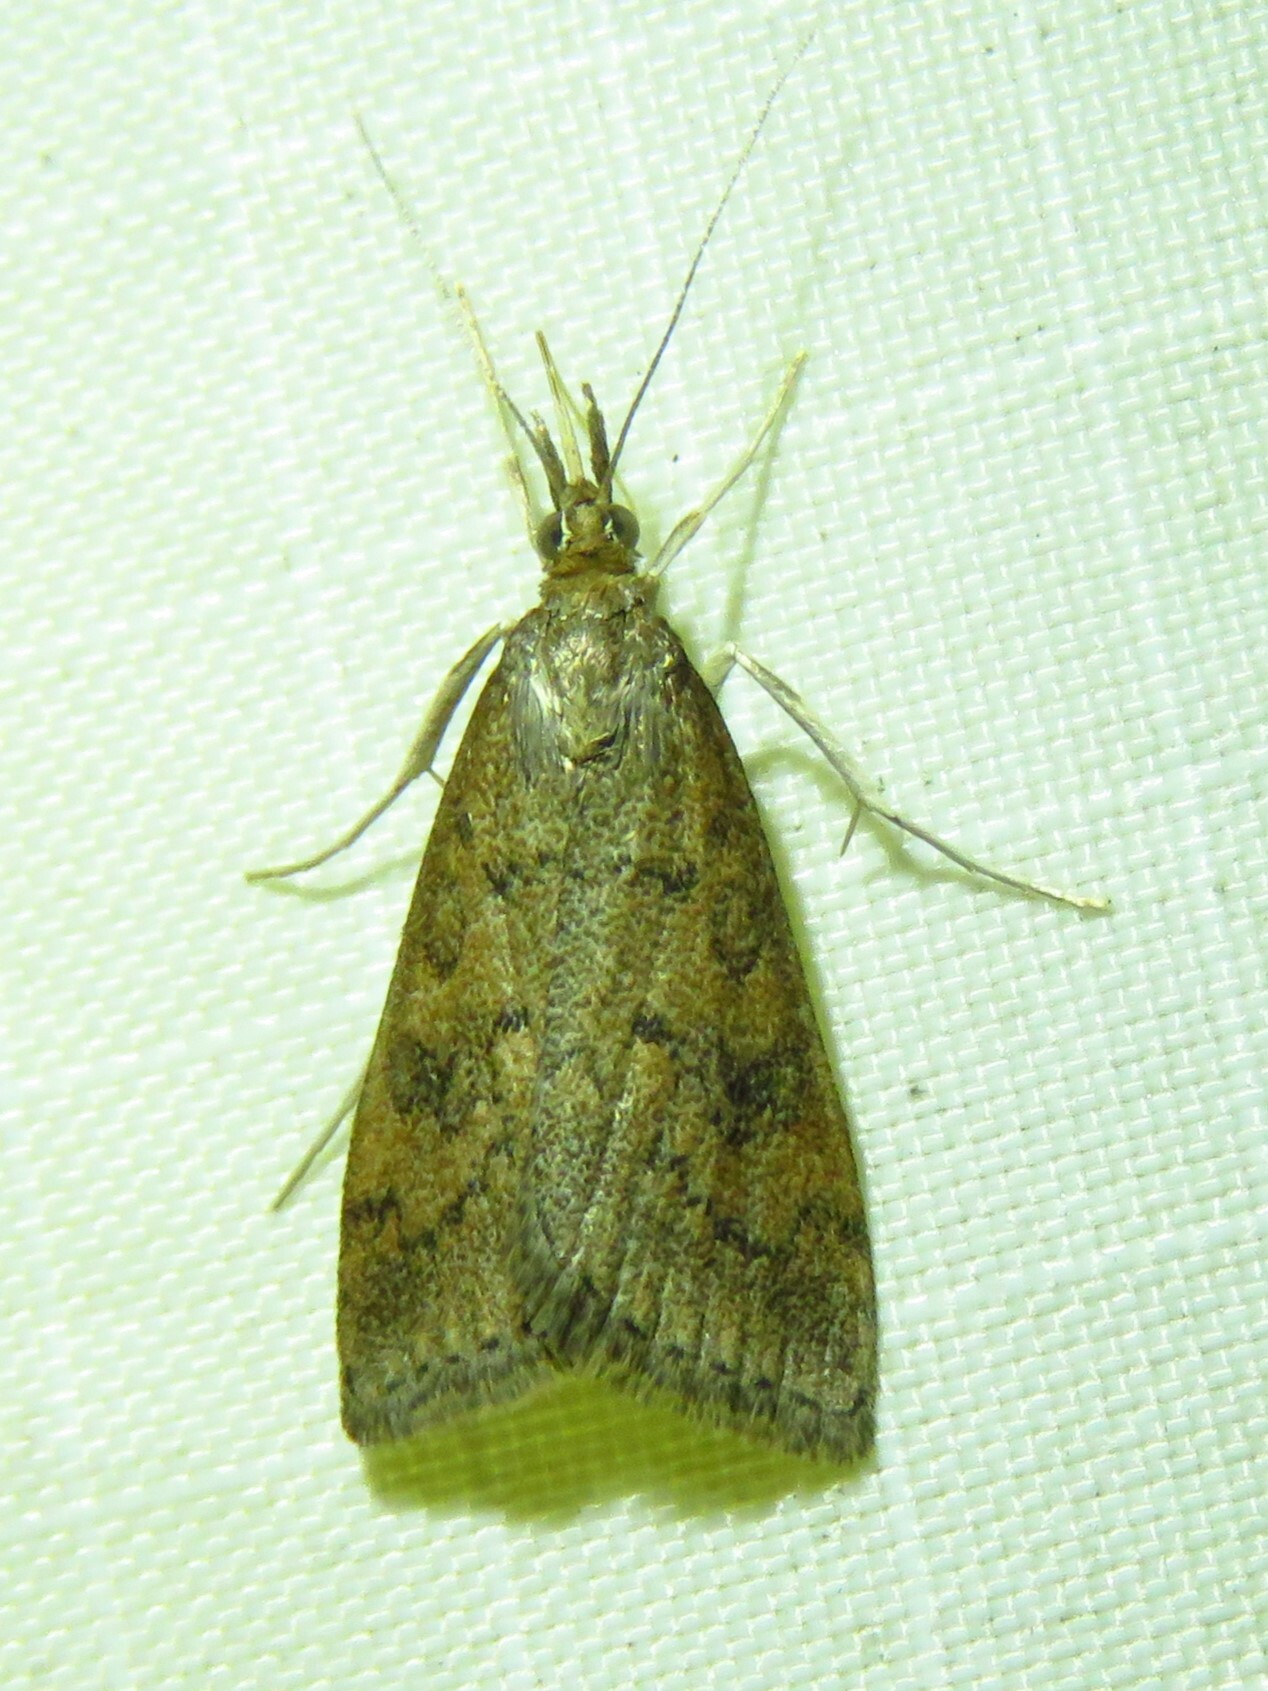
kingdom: Animalia
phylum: Arthropoda
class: Insecta
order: Lepidoptera
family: Crambidae
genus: Udea
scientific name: Udea rubigalis
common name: Celery leaftier moth
